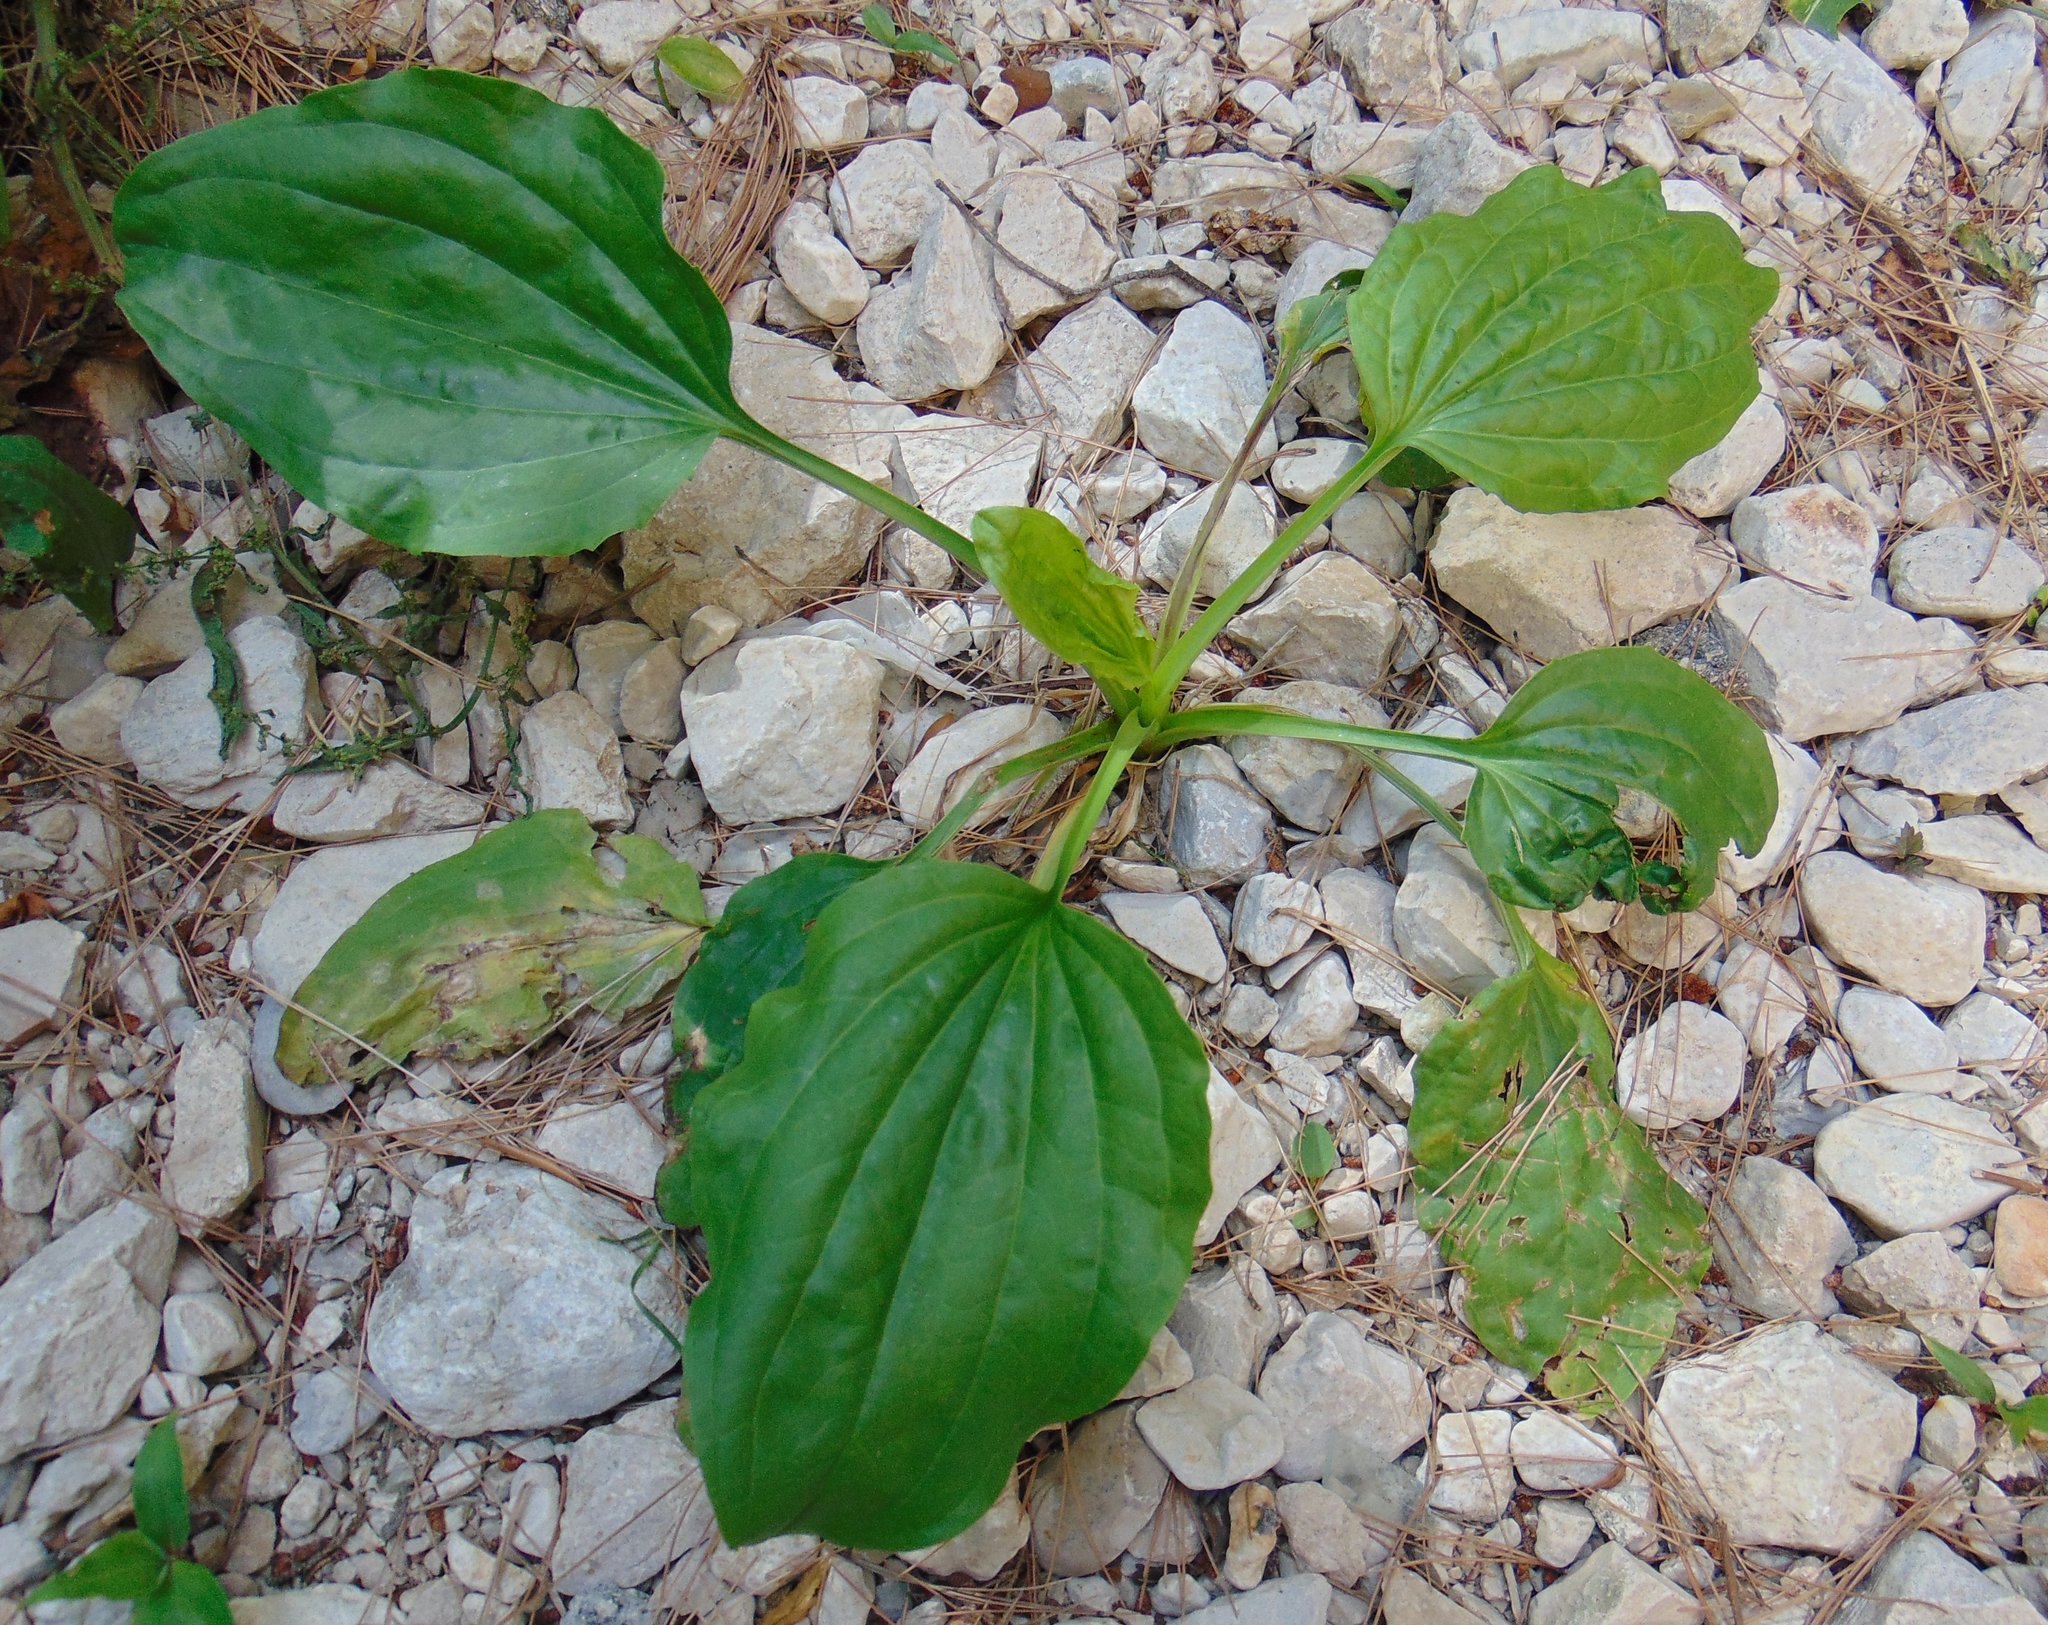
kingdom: Plantae
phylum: Tracheophyta
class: Magnoliopsida
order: Lamiales
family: Plantaginaceae
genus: Plantago
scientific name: Plantago major
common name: Common plantain
